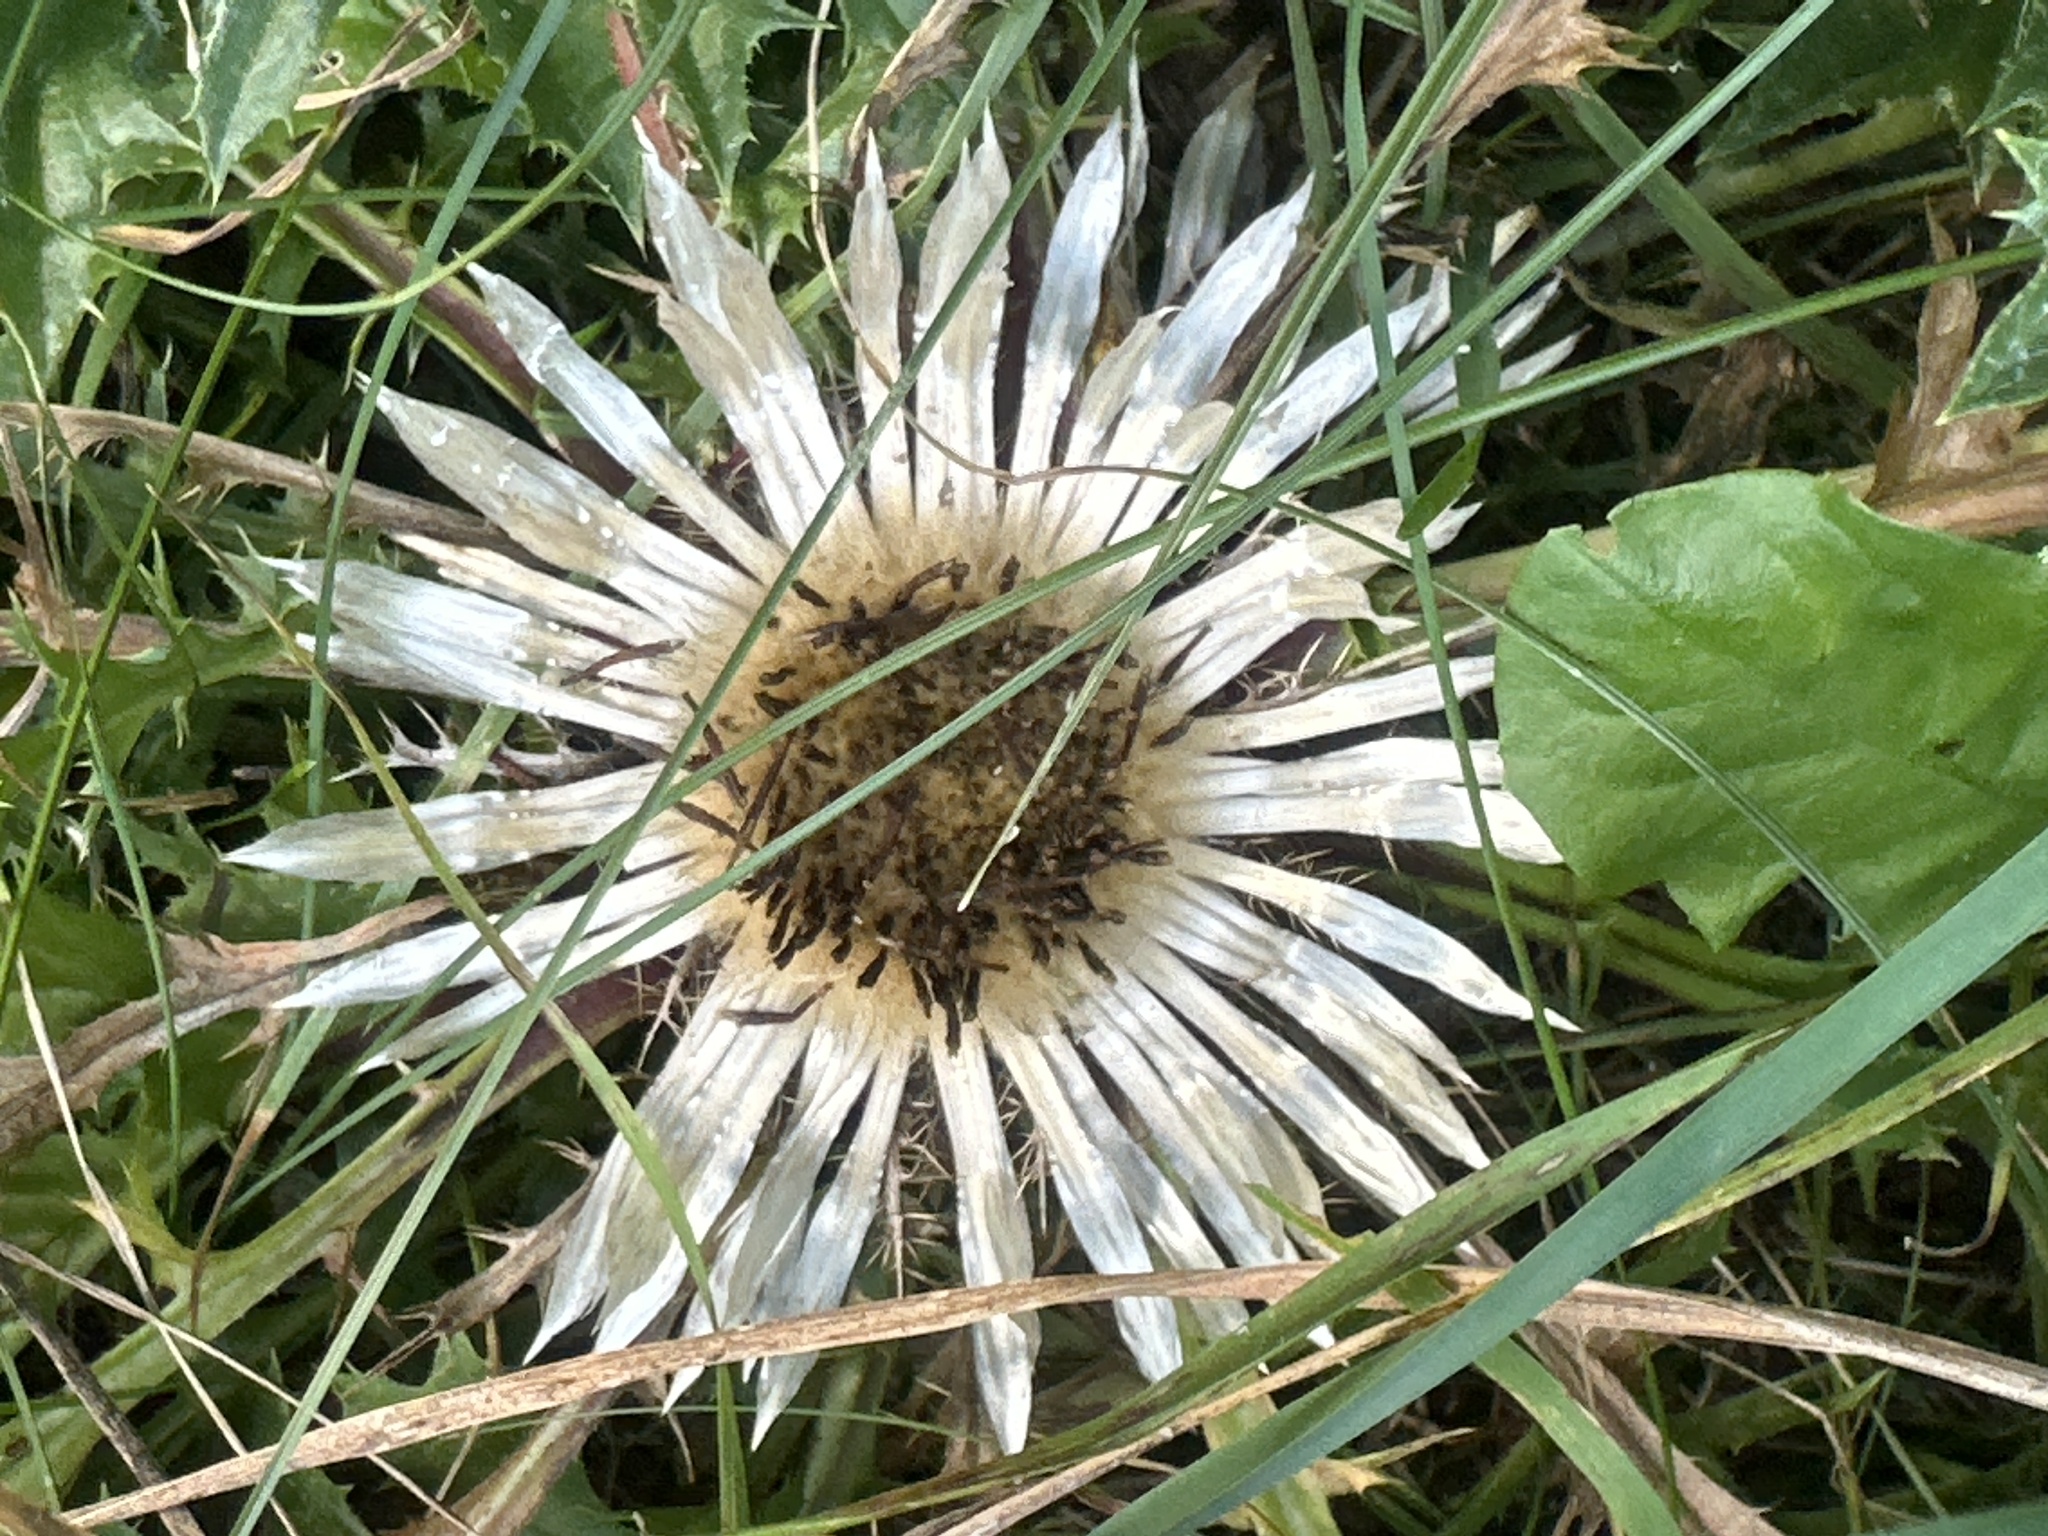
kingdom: Plantae
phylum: Tracheophyta
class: Magnoliopsida
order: Asterales
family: Asteraceae
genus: Carlina
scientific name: Carlina acaulis
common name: Stemless carline thistle
